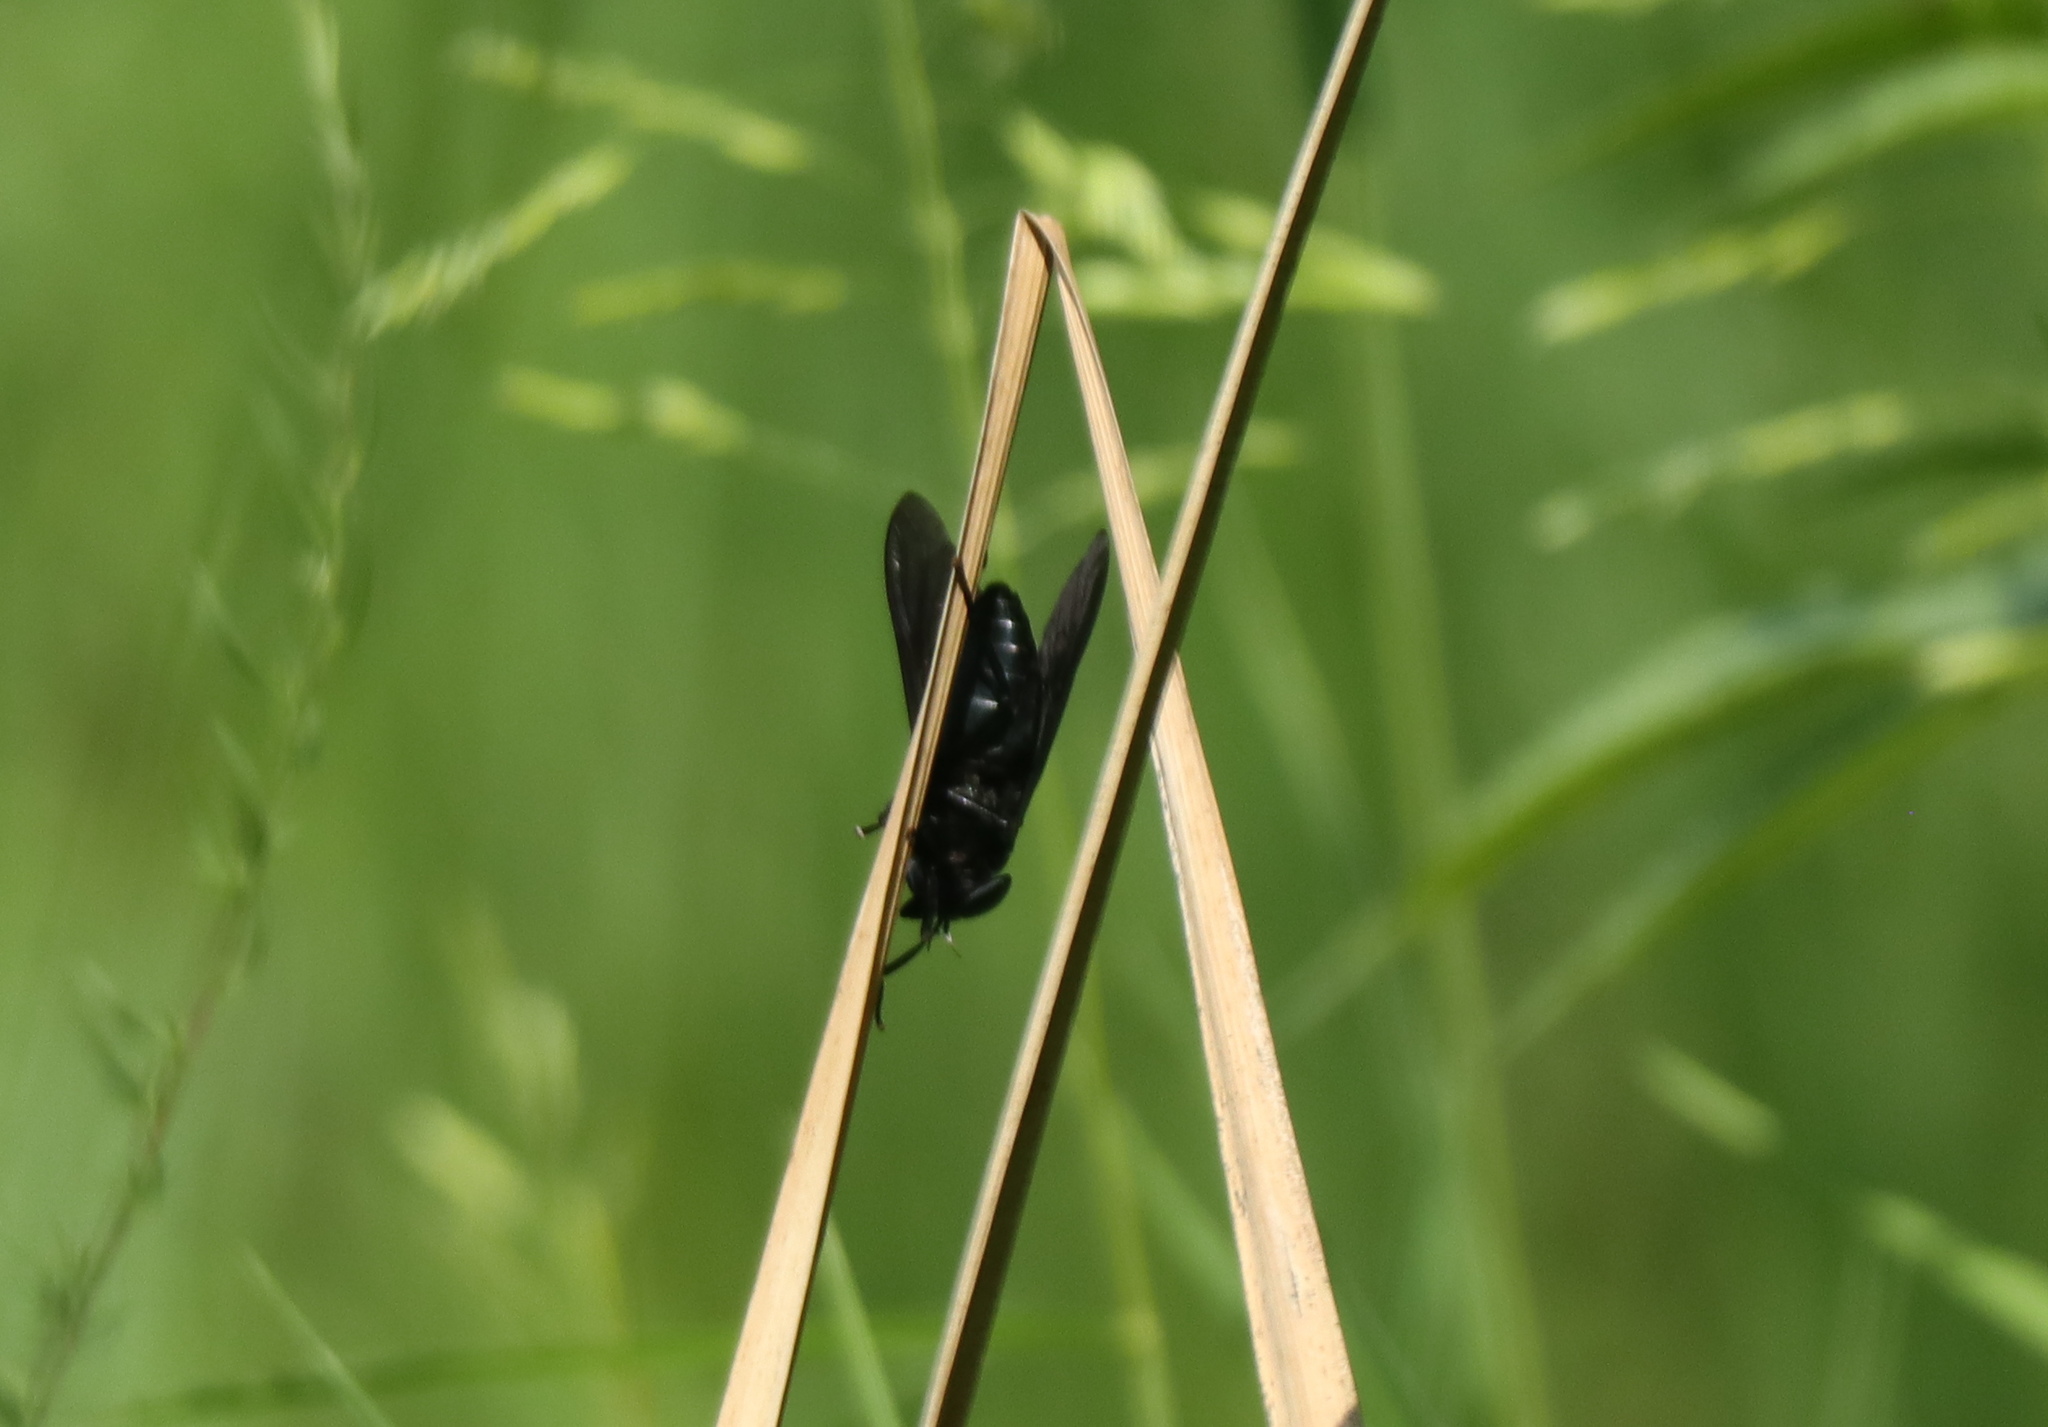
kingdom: Animalia
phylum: Arthropoda
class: Insecta
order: Diptera
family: Tabanidae
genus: Tabanus
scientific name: Tabanus atratus
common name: Black horse fly
